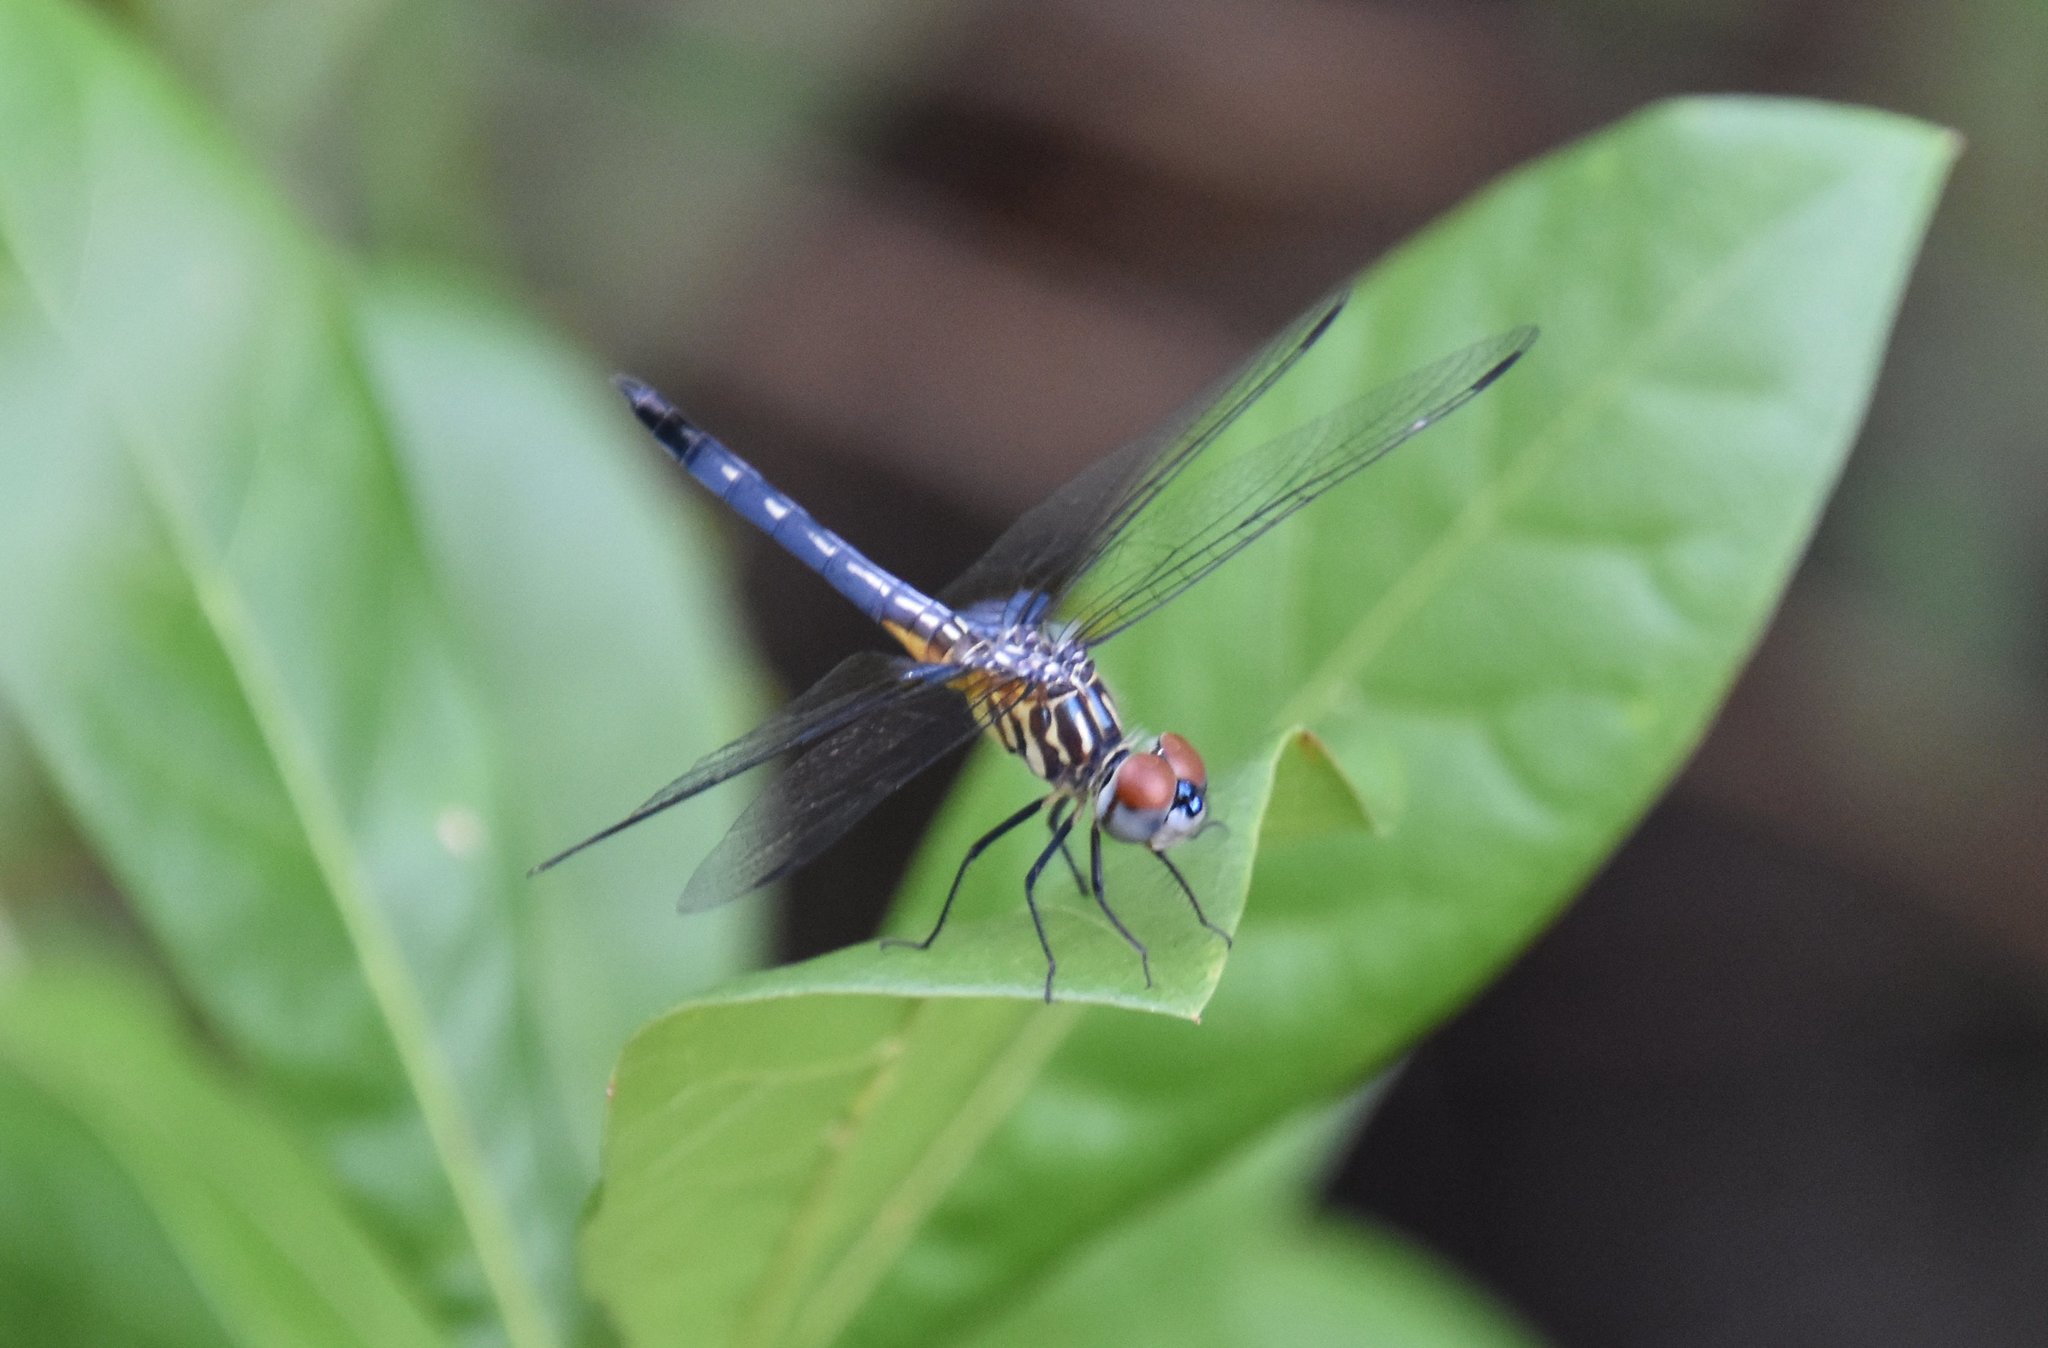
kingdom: Animalia
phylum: Arthropoda
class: Insecta
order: Odonata
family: Libellulidae
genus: Pachydiplax
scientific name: Pachydiplax longipennis
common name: Blue dasher
